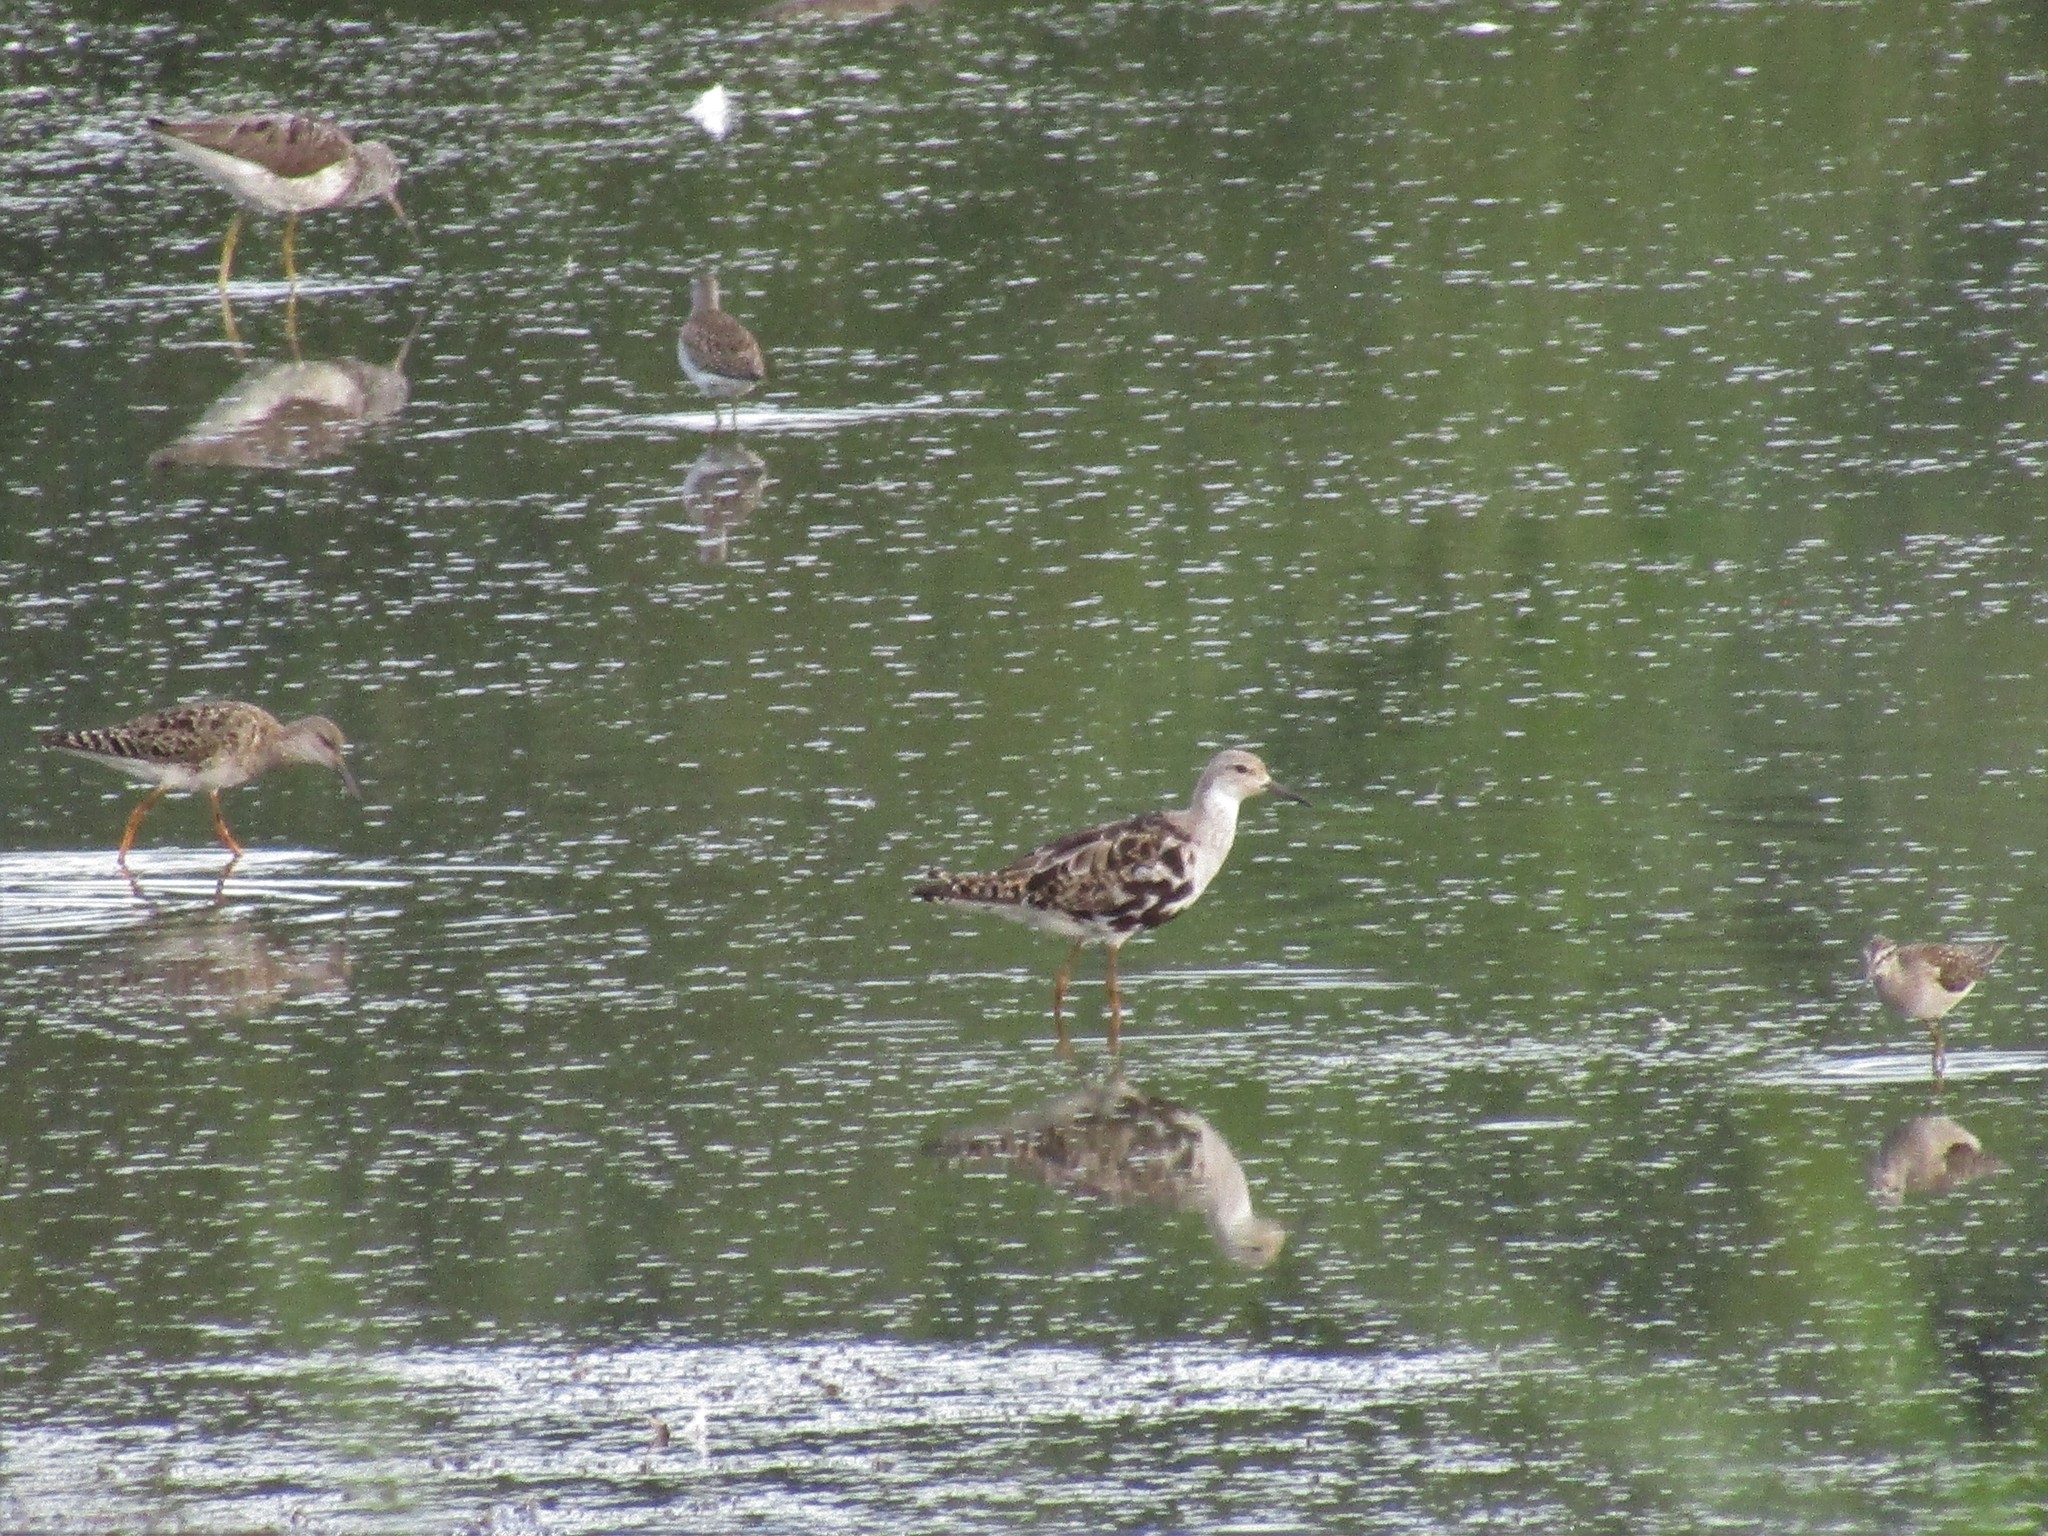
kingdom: Animalia
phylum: Chordata
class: Aves
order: Charadriiformes
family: Scolopacidae
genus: Calidris
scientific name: Calidris pugnax
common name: Ruff
